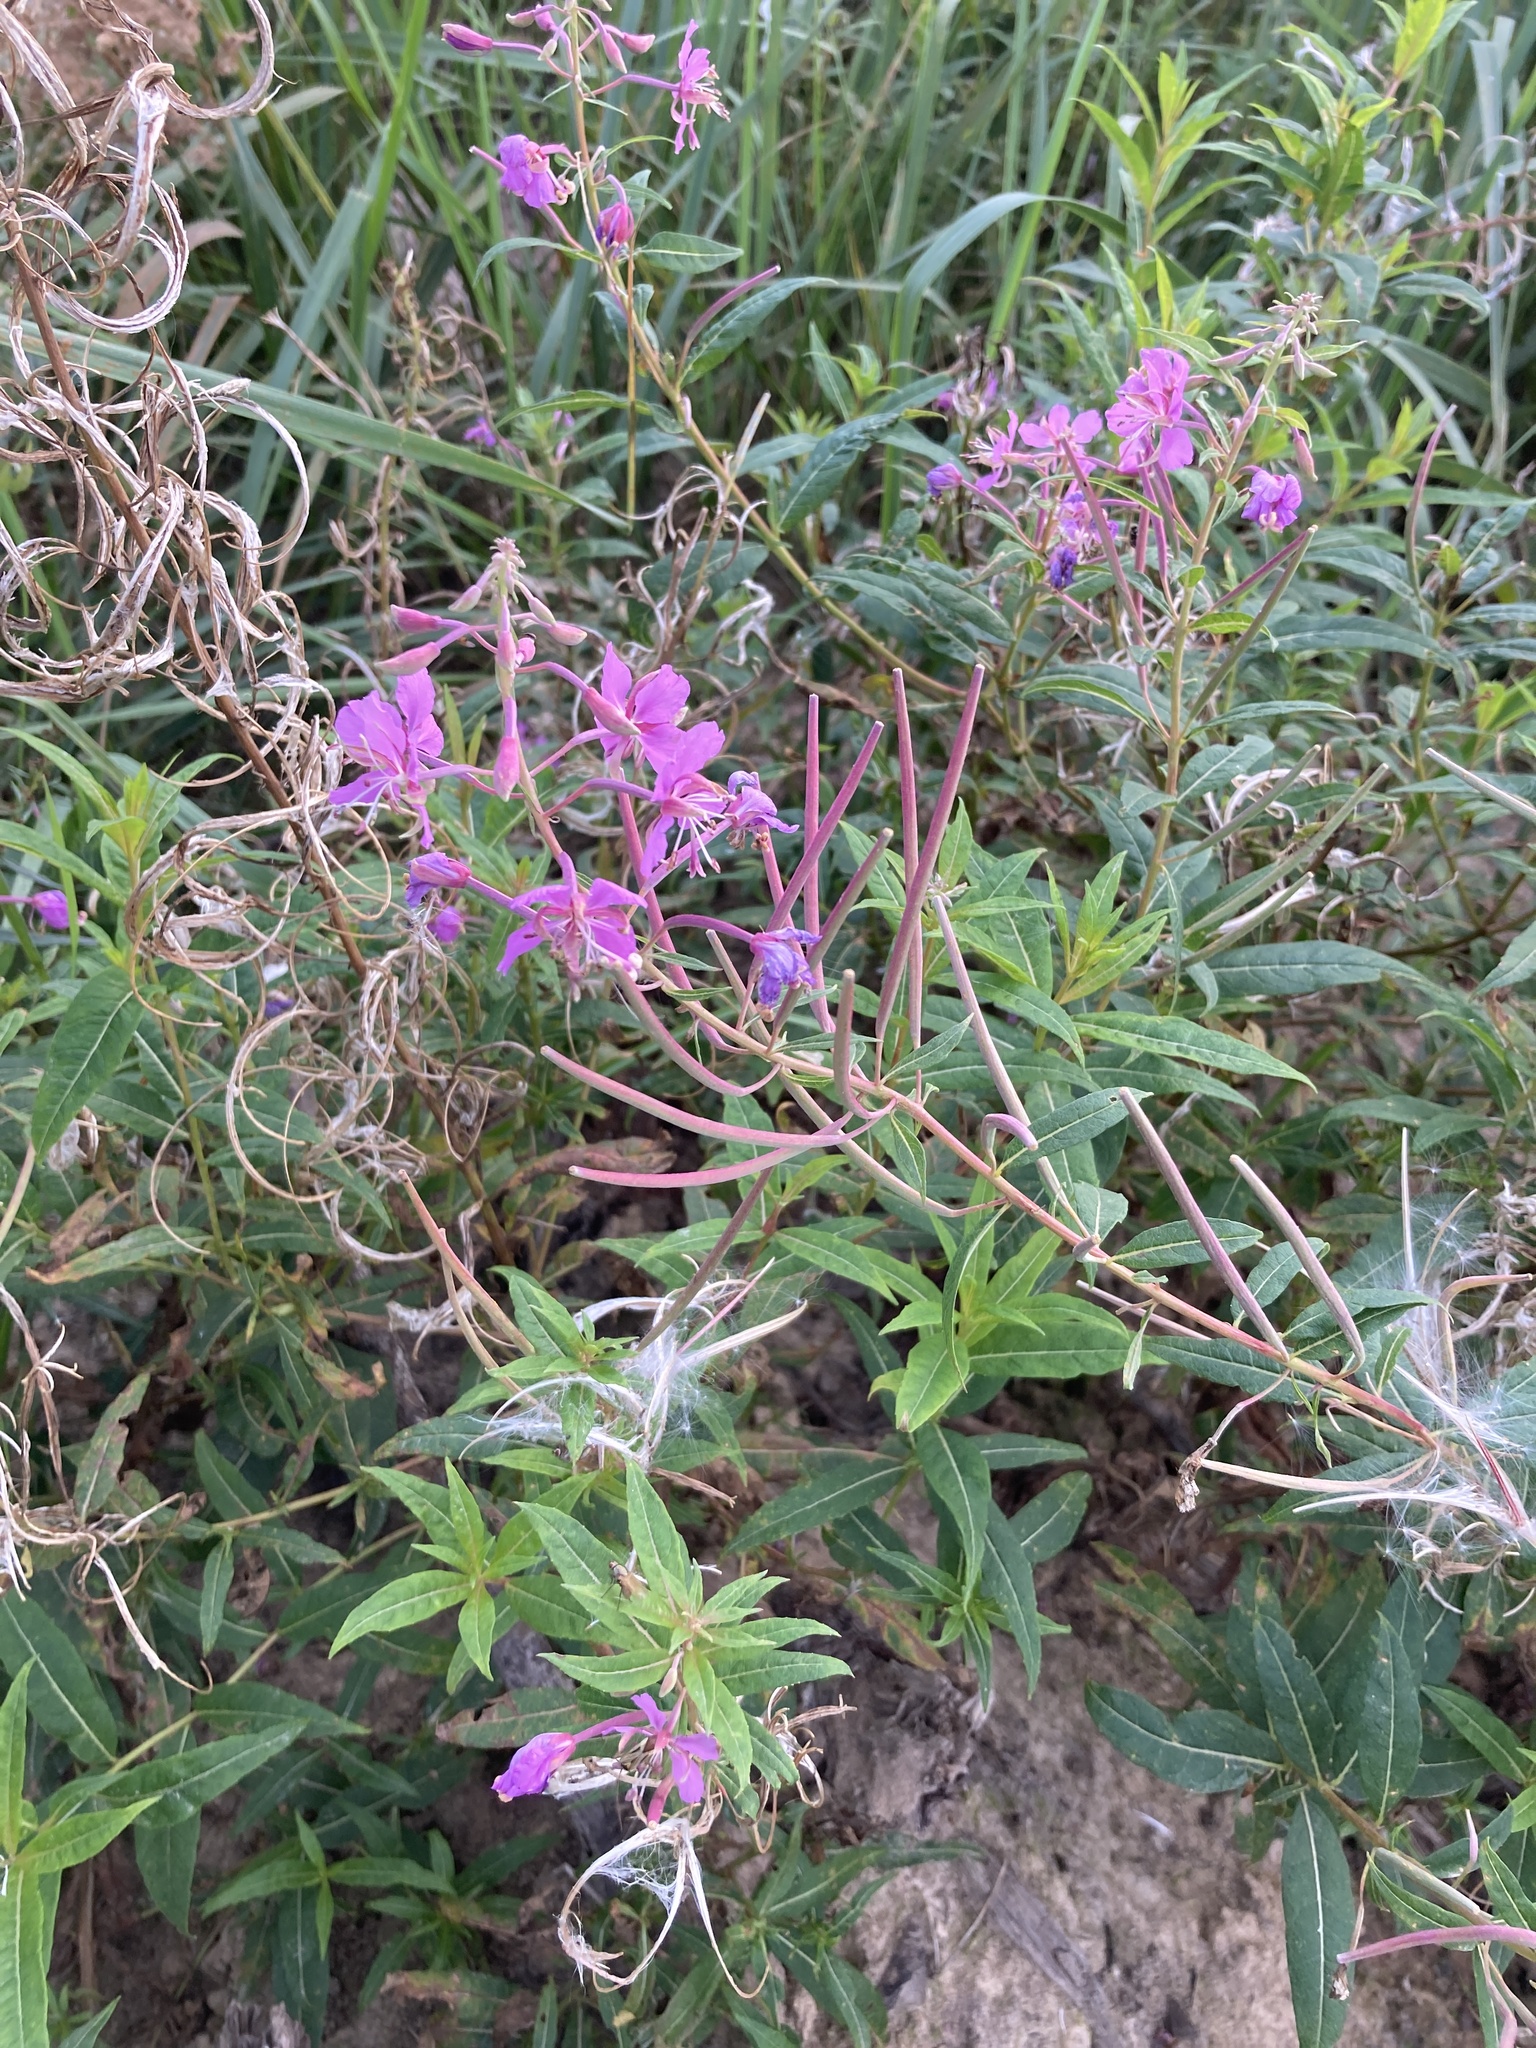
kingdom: Plantae
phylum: Tracheophyta
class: Magnoliopsida
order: Myrtales
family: Onagraceae
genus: Chamaenerion
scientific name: Chamaenerion angustifolium
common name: Fireweed
